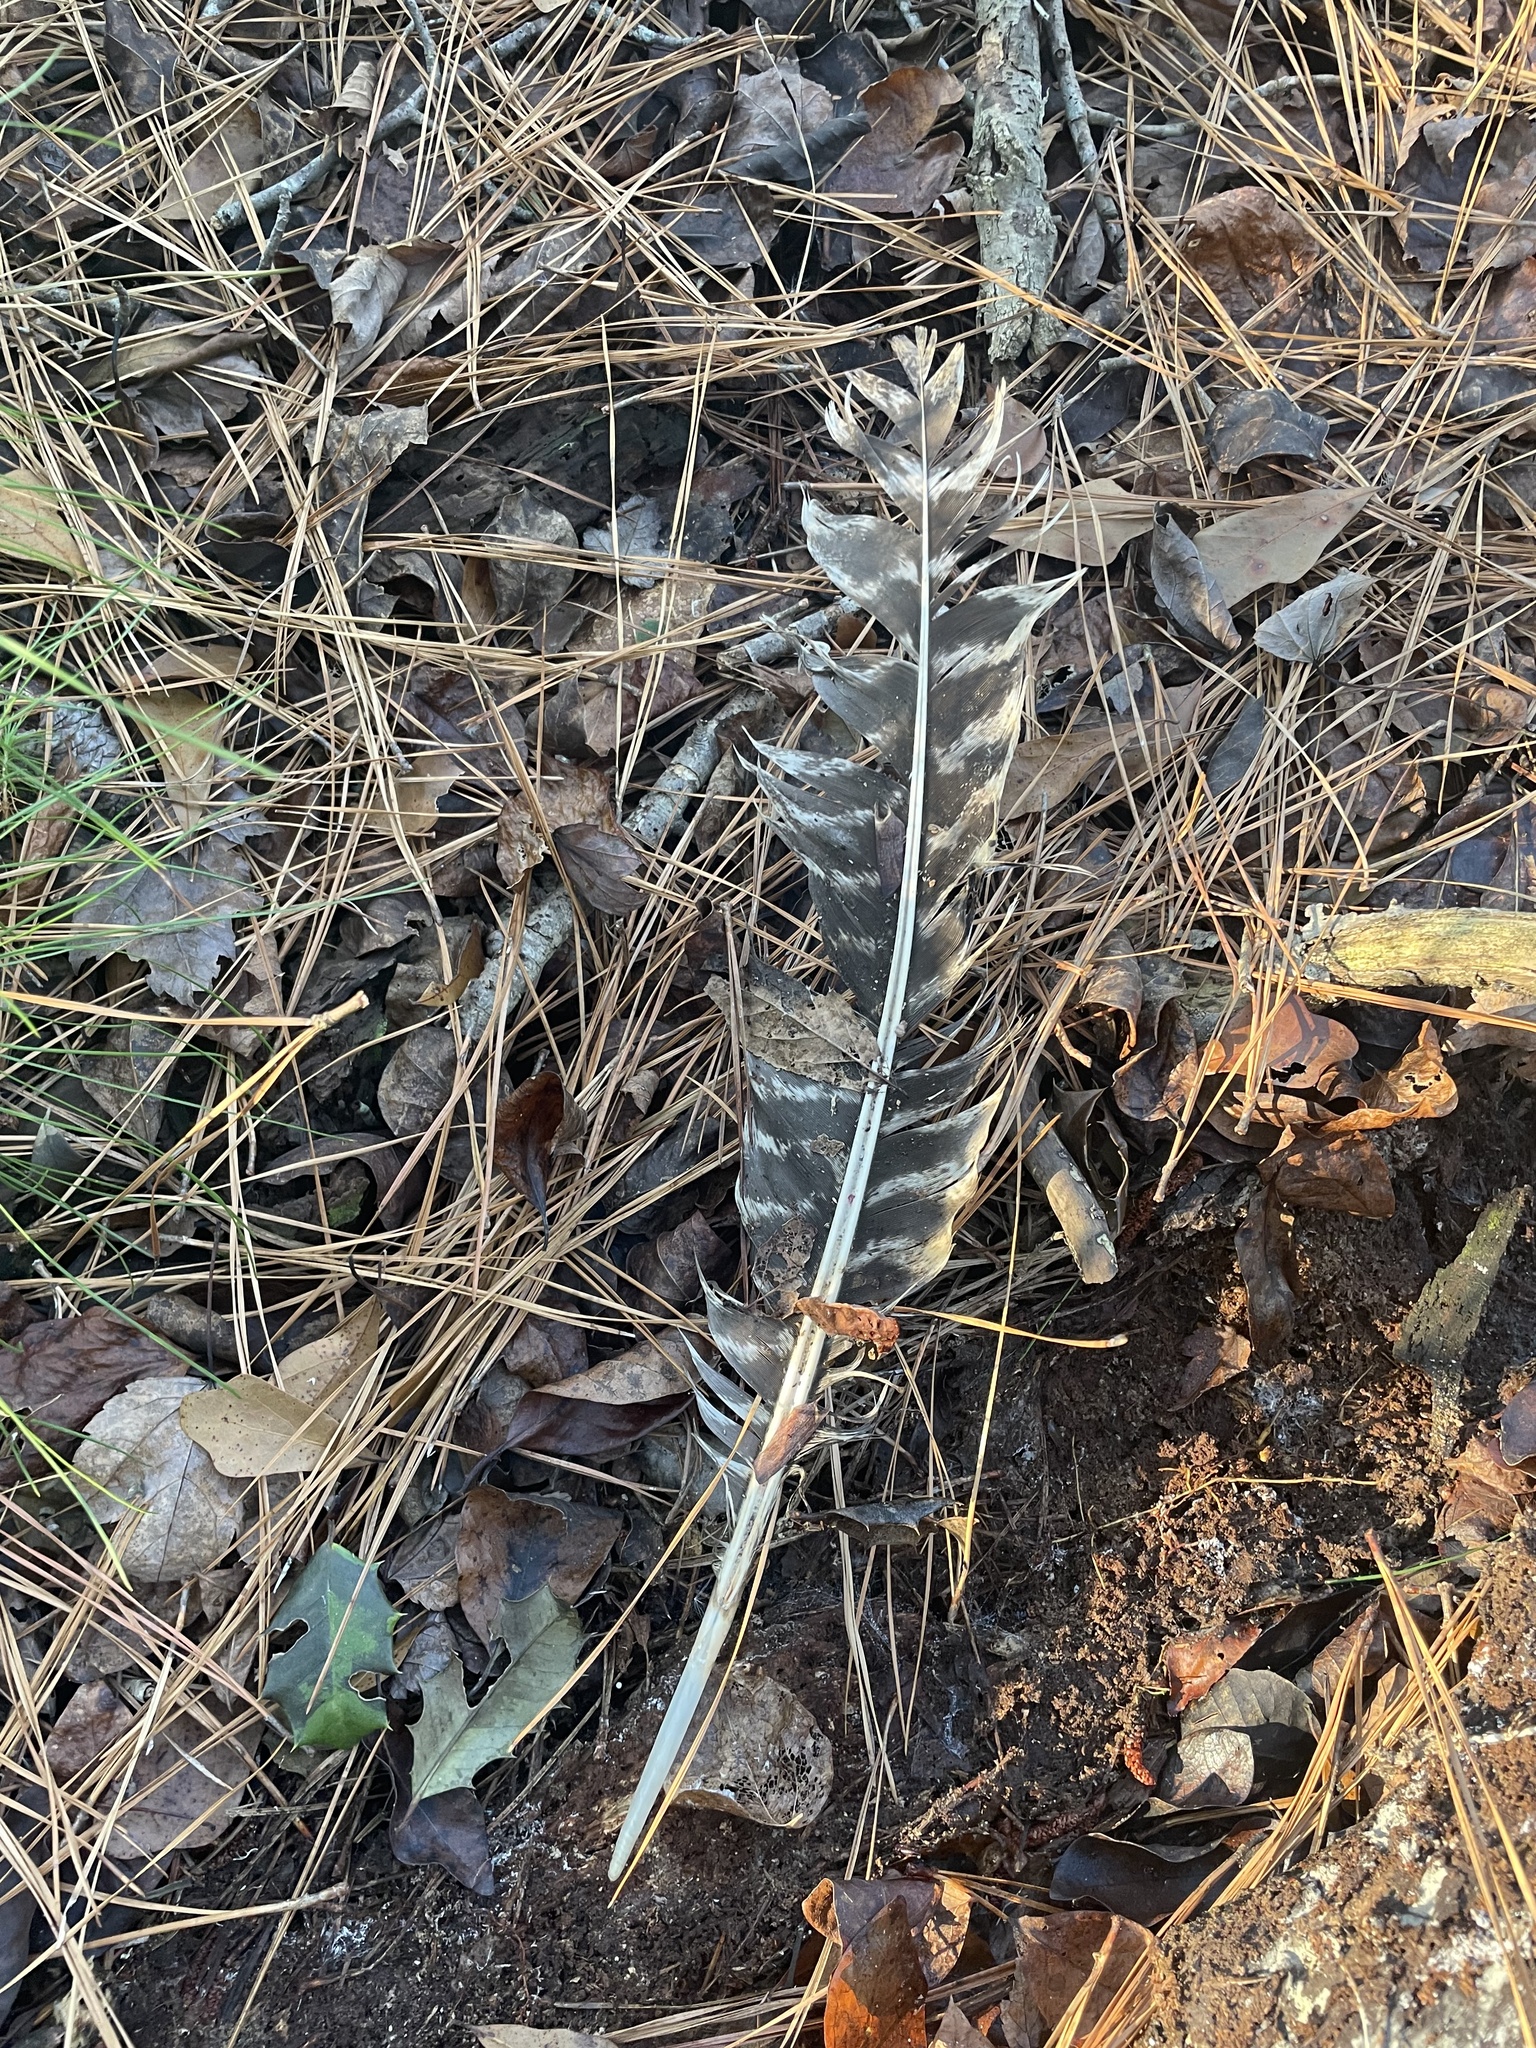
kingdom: Animalia
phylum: Chordata
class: Aves
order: Galliformes
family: Phasianidae
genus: Meleagris
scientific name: Meleagris gallopavo
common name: Wild turkey
